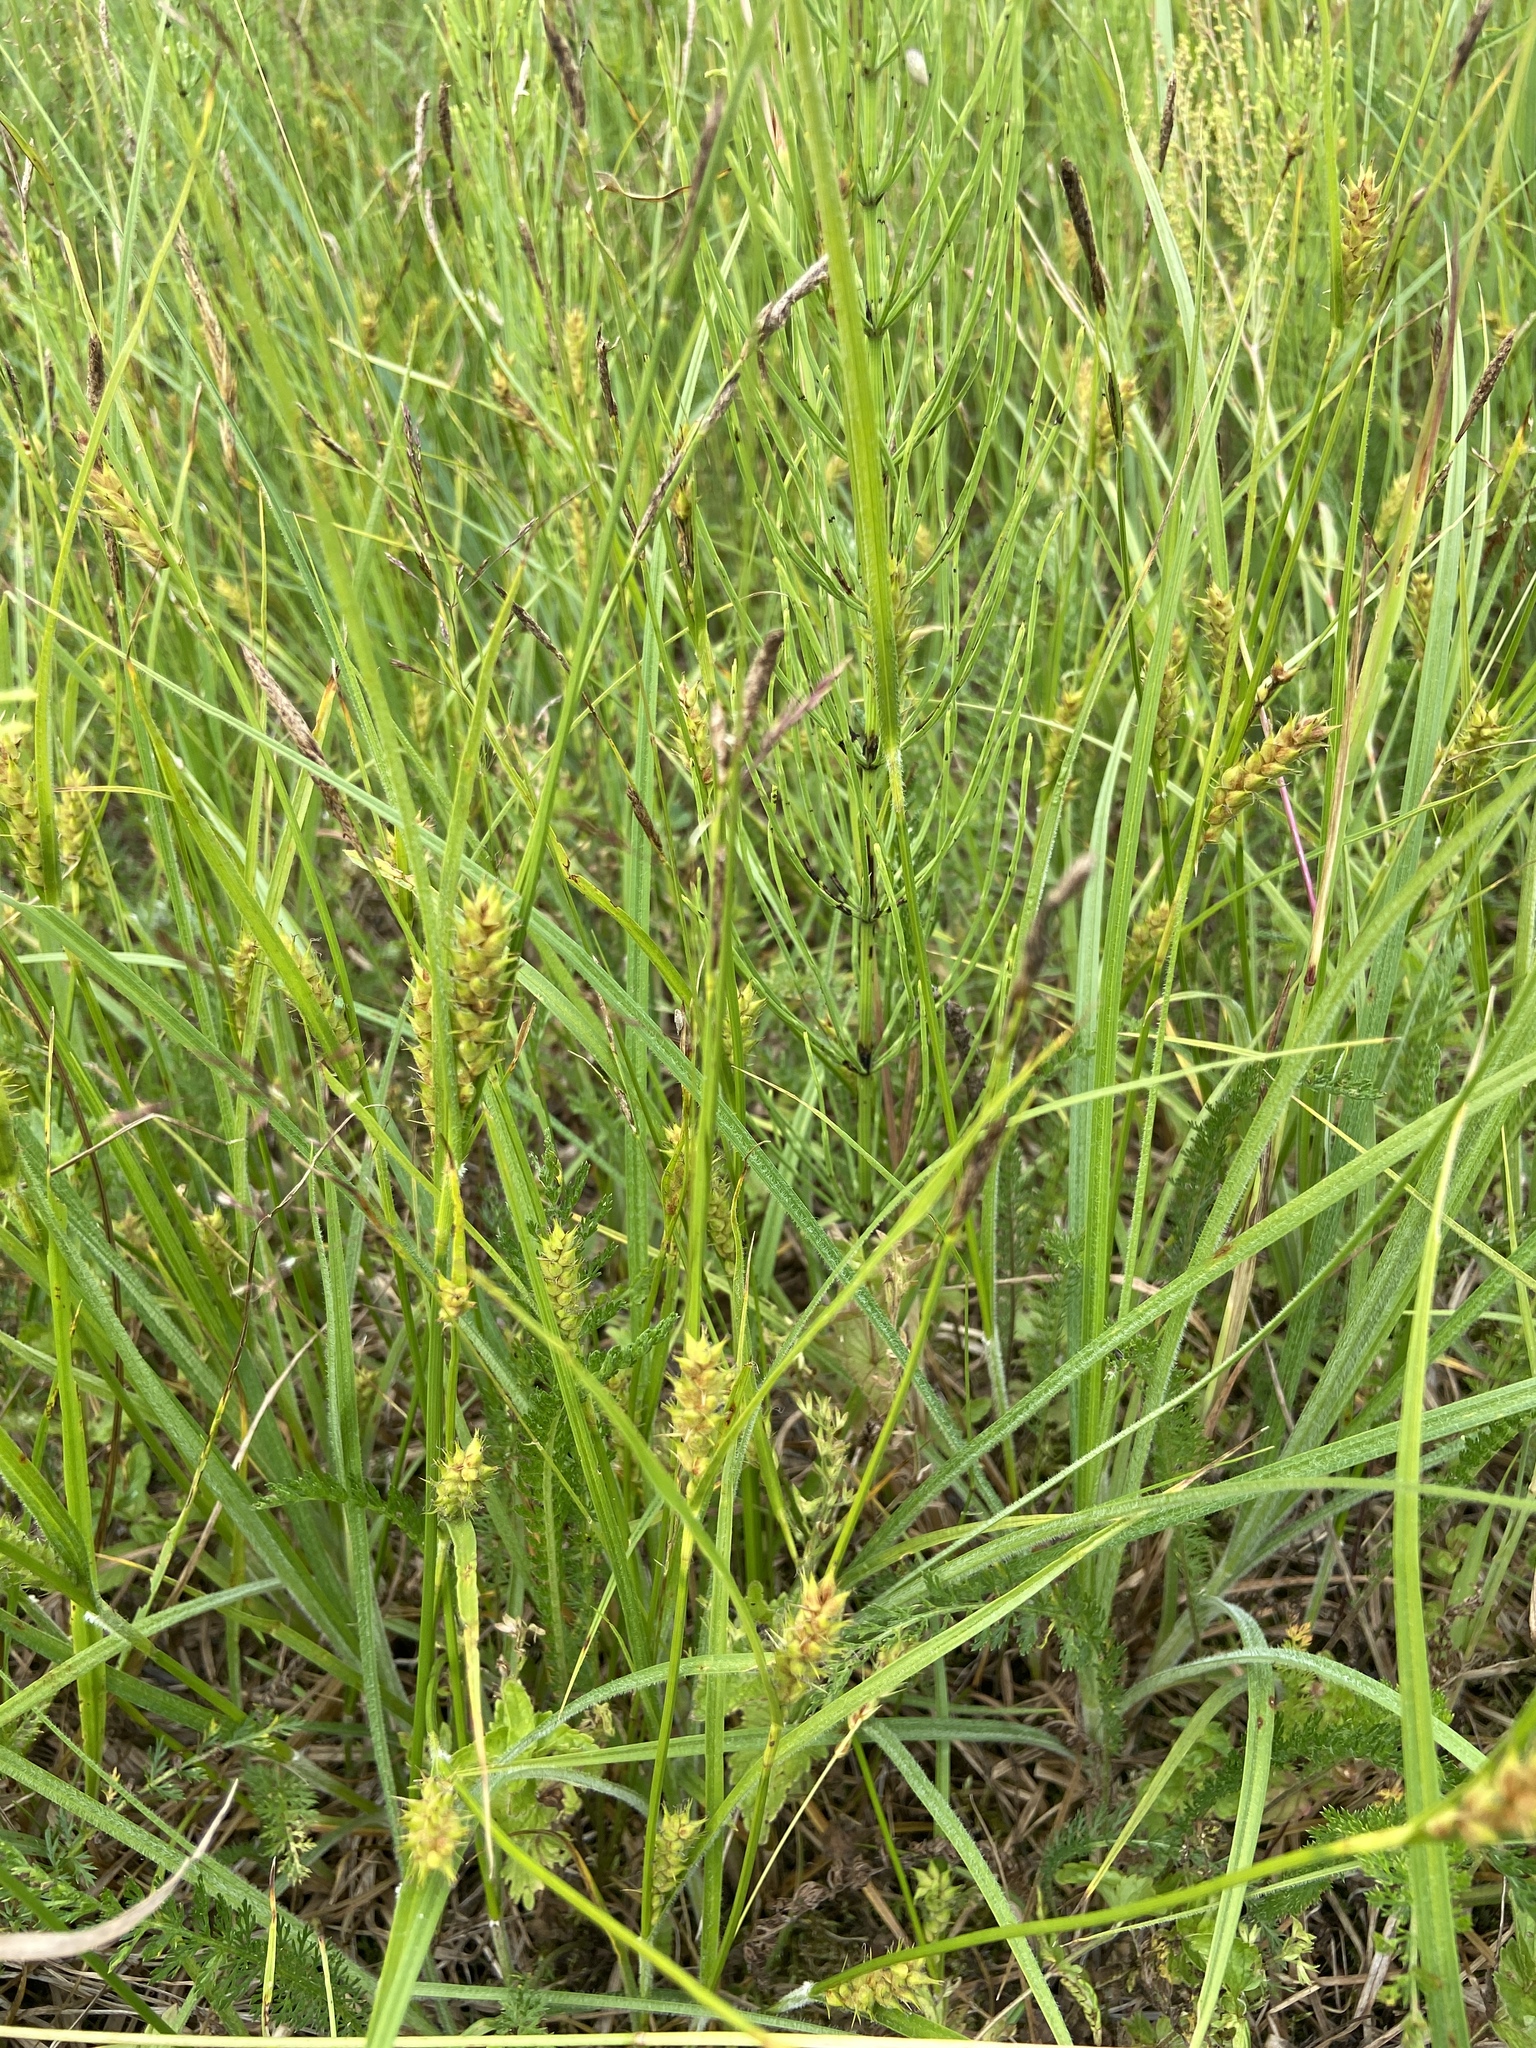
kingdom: Plantae
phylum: Tracheophyta
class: Liliopsida
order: Poales
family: Cyperaceae
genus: Carex
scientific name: Carex hirta
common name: Hairy sedge
